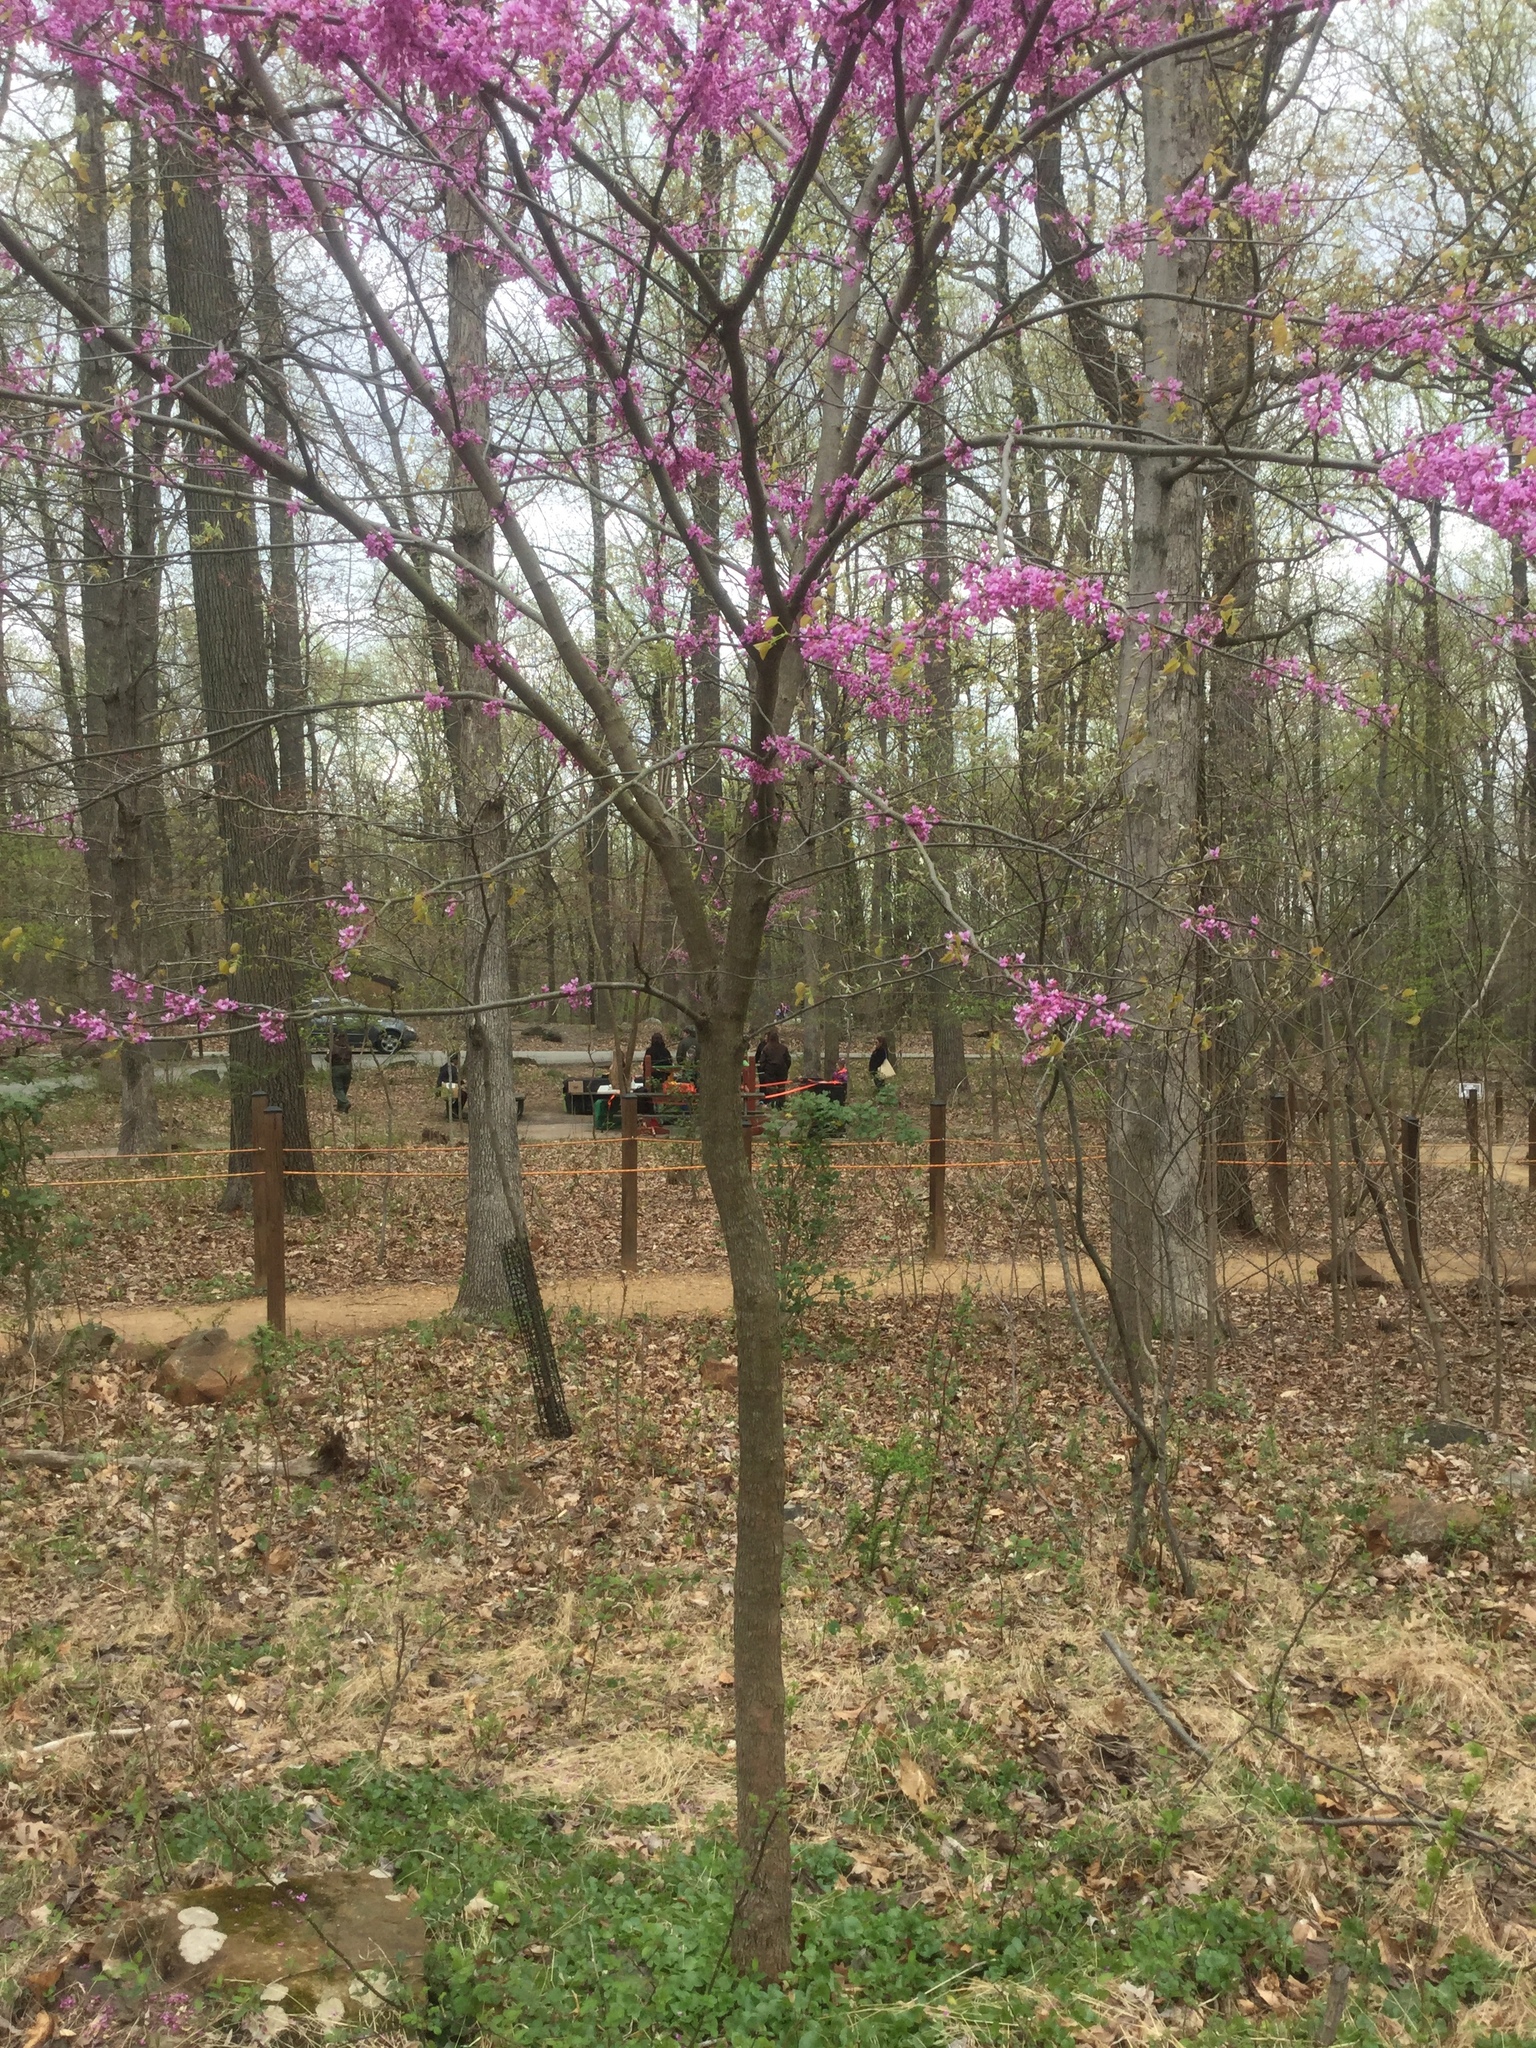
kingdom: Plantae
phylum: Tracheophyta
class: Magnoliopsida
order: Fabales
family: Fabaceae
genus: Cercis
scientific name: Cercis canadensis
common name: Eastern redbud
